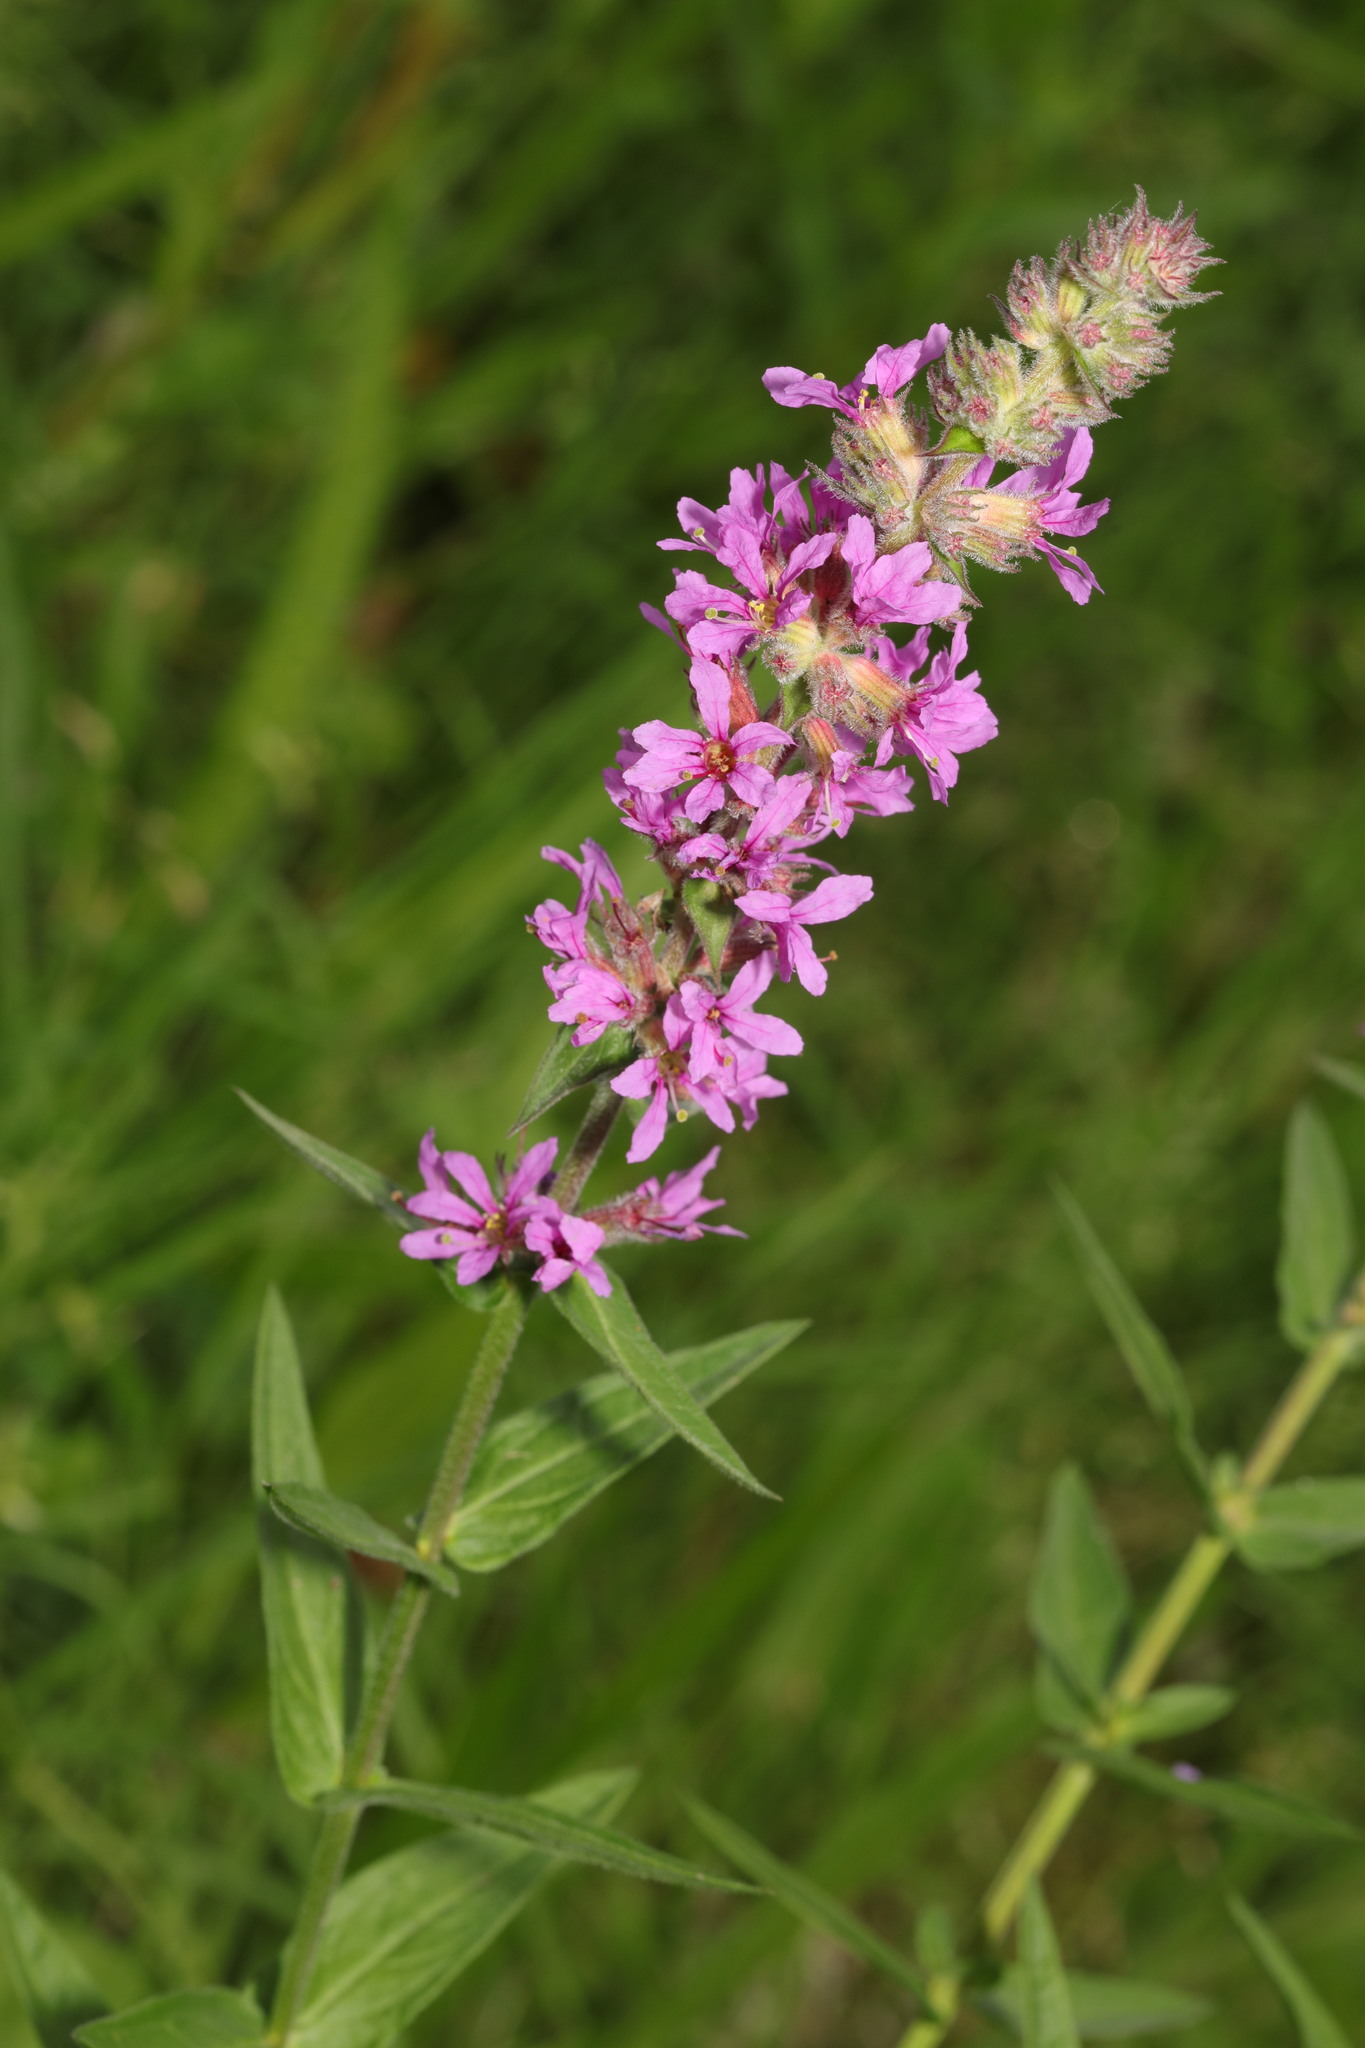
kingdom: Plantae
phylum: Tracheophyta
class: Magnoliopsida
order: Myrtales
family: Lythraceae
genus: Lythrum
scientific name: Lythrum salicaria
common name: Purple loosestrife
